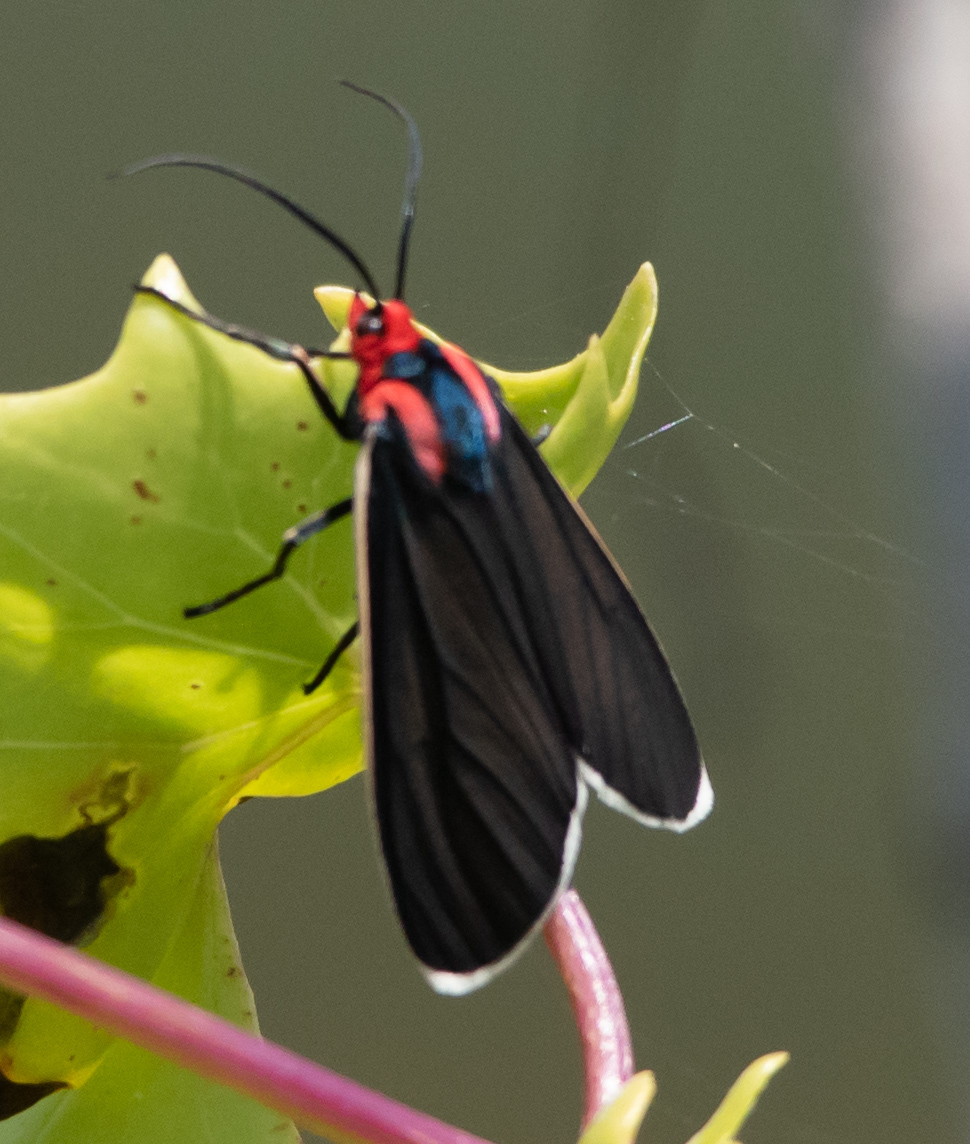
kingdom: Animalia
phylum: Arthropoda
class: Insecta
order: Lepidoptera
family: Erebidae
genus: Ctenucha
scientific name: Ctenucha multifaria
